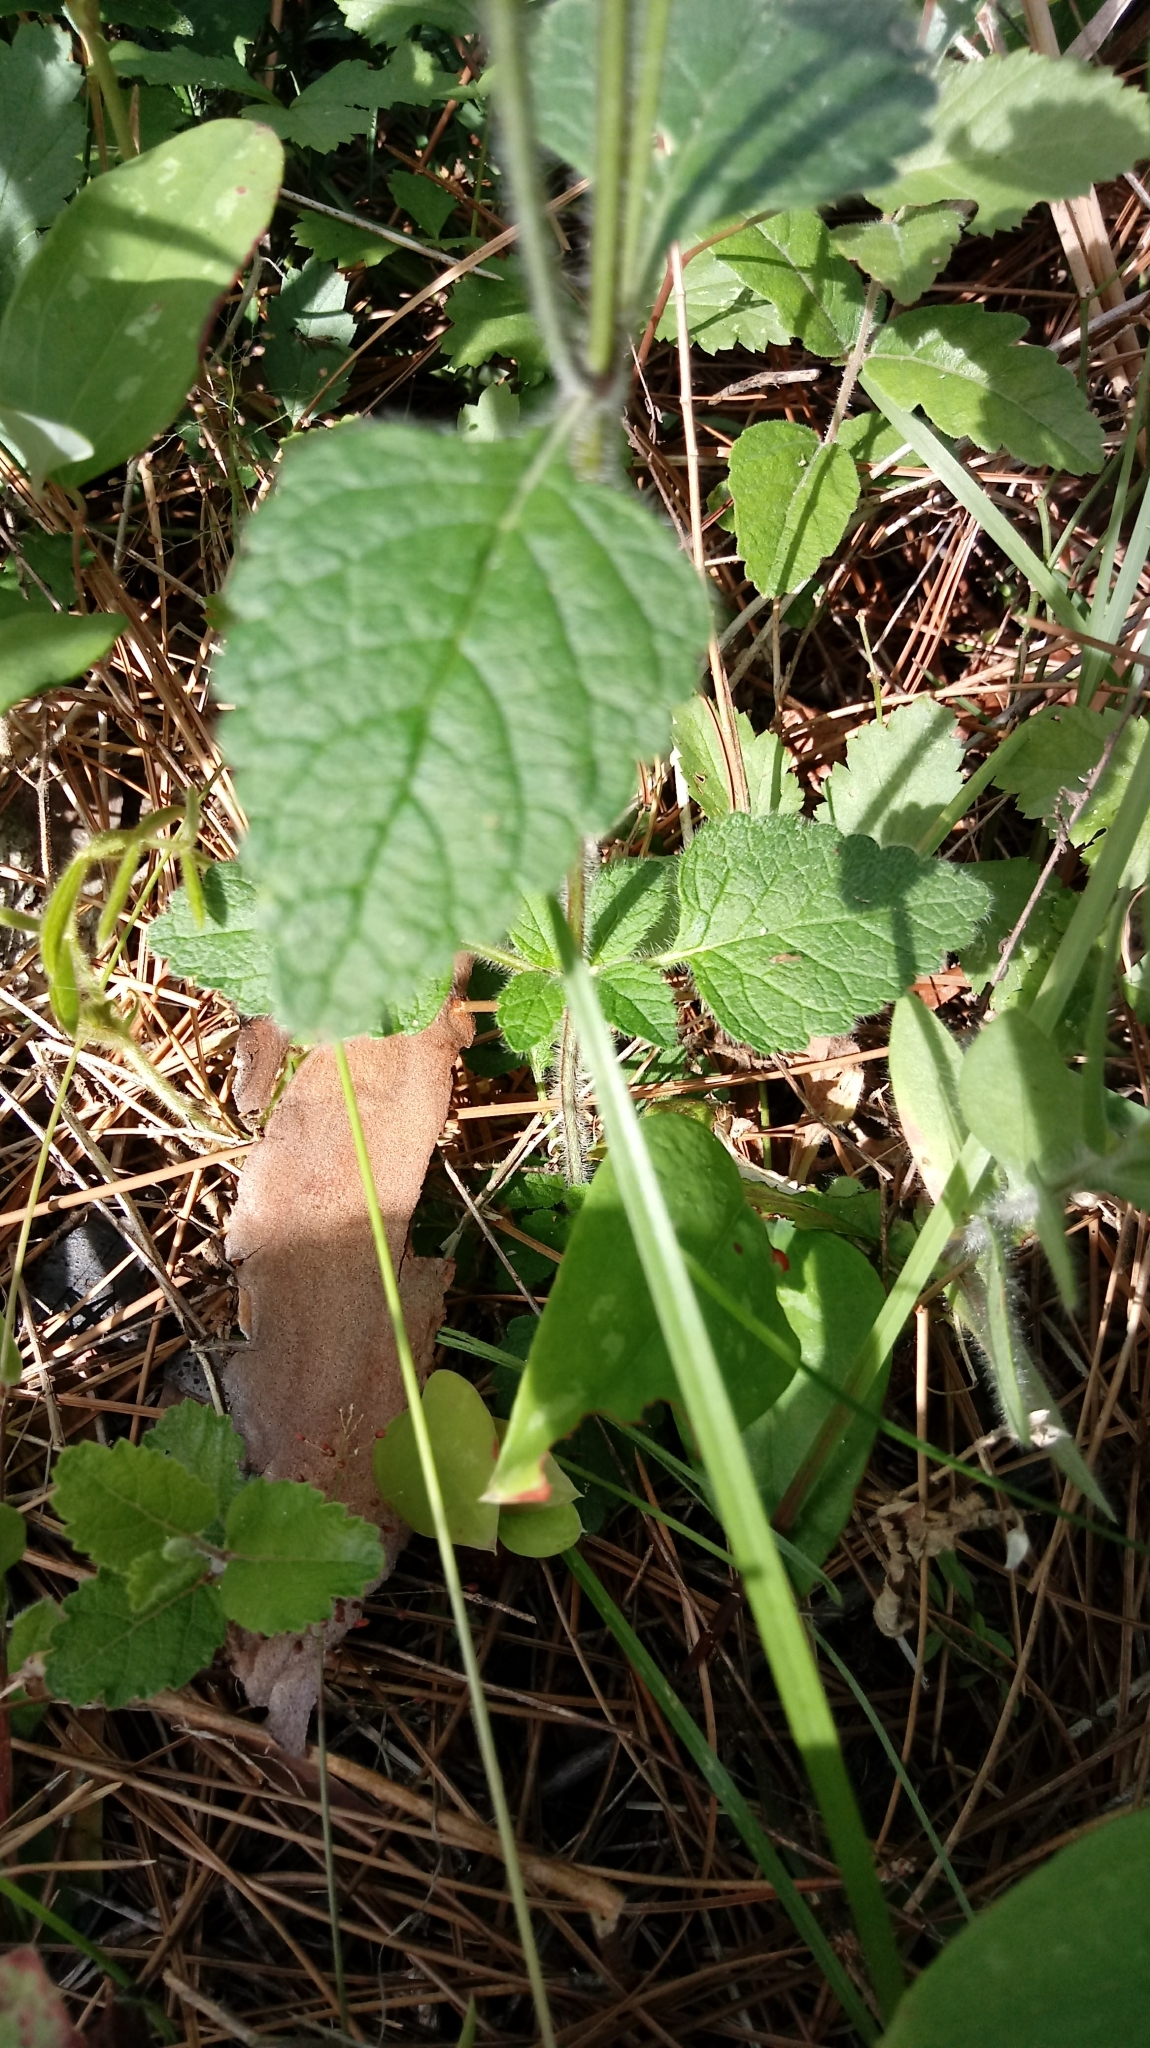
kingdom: Plantae
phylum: Tracheophyta
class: Magnoliopsida
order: Lamiales
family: Lamiaceae
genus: Scutellaria
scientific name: Scutellaria elliptica
